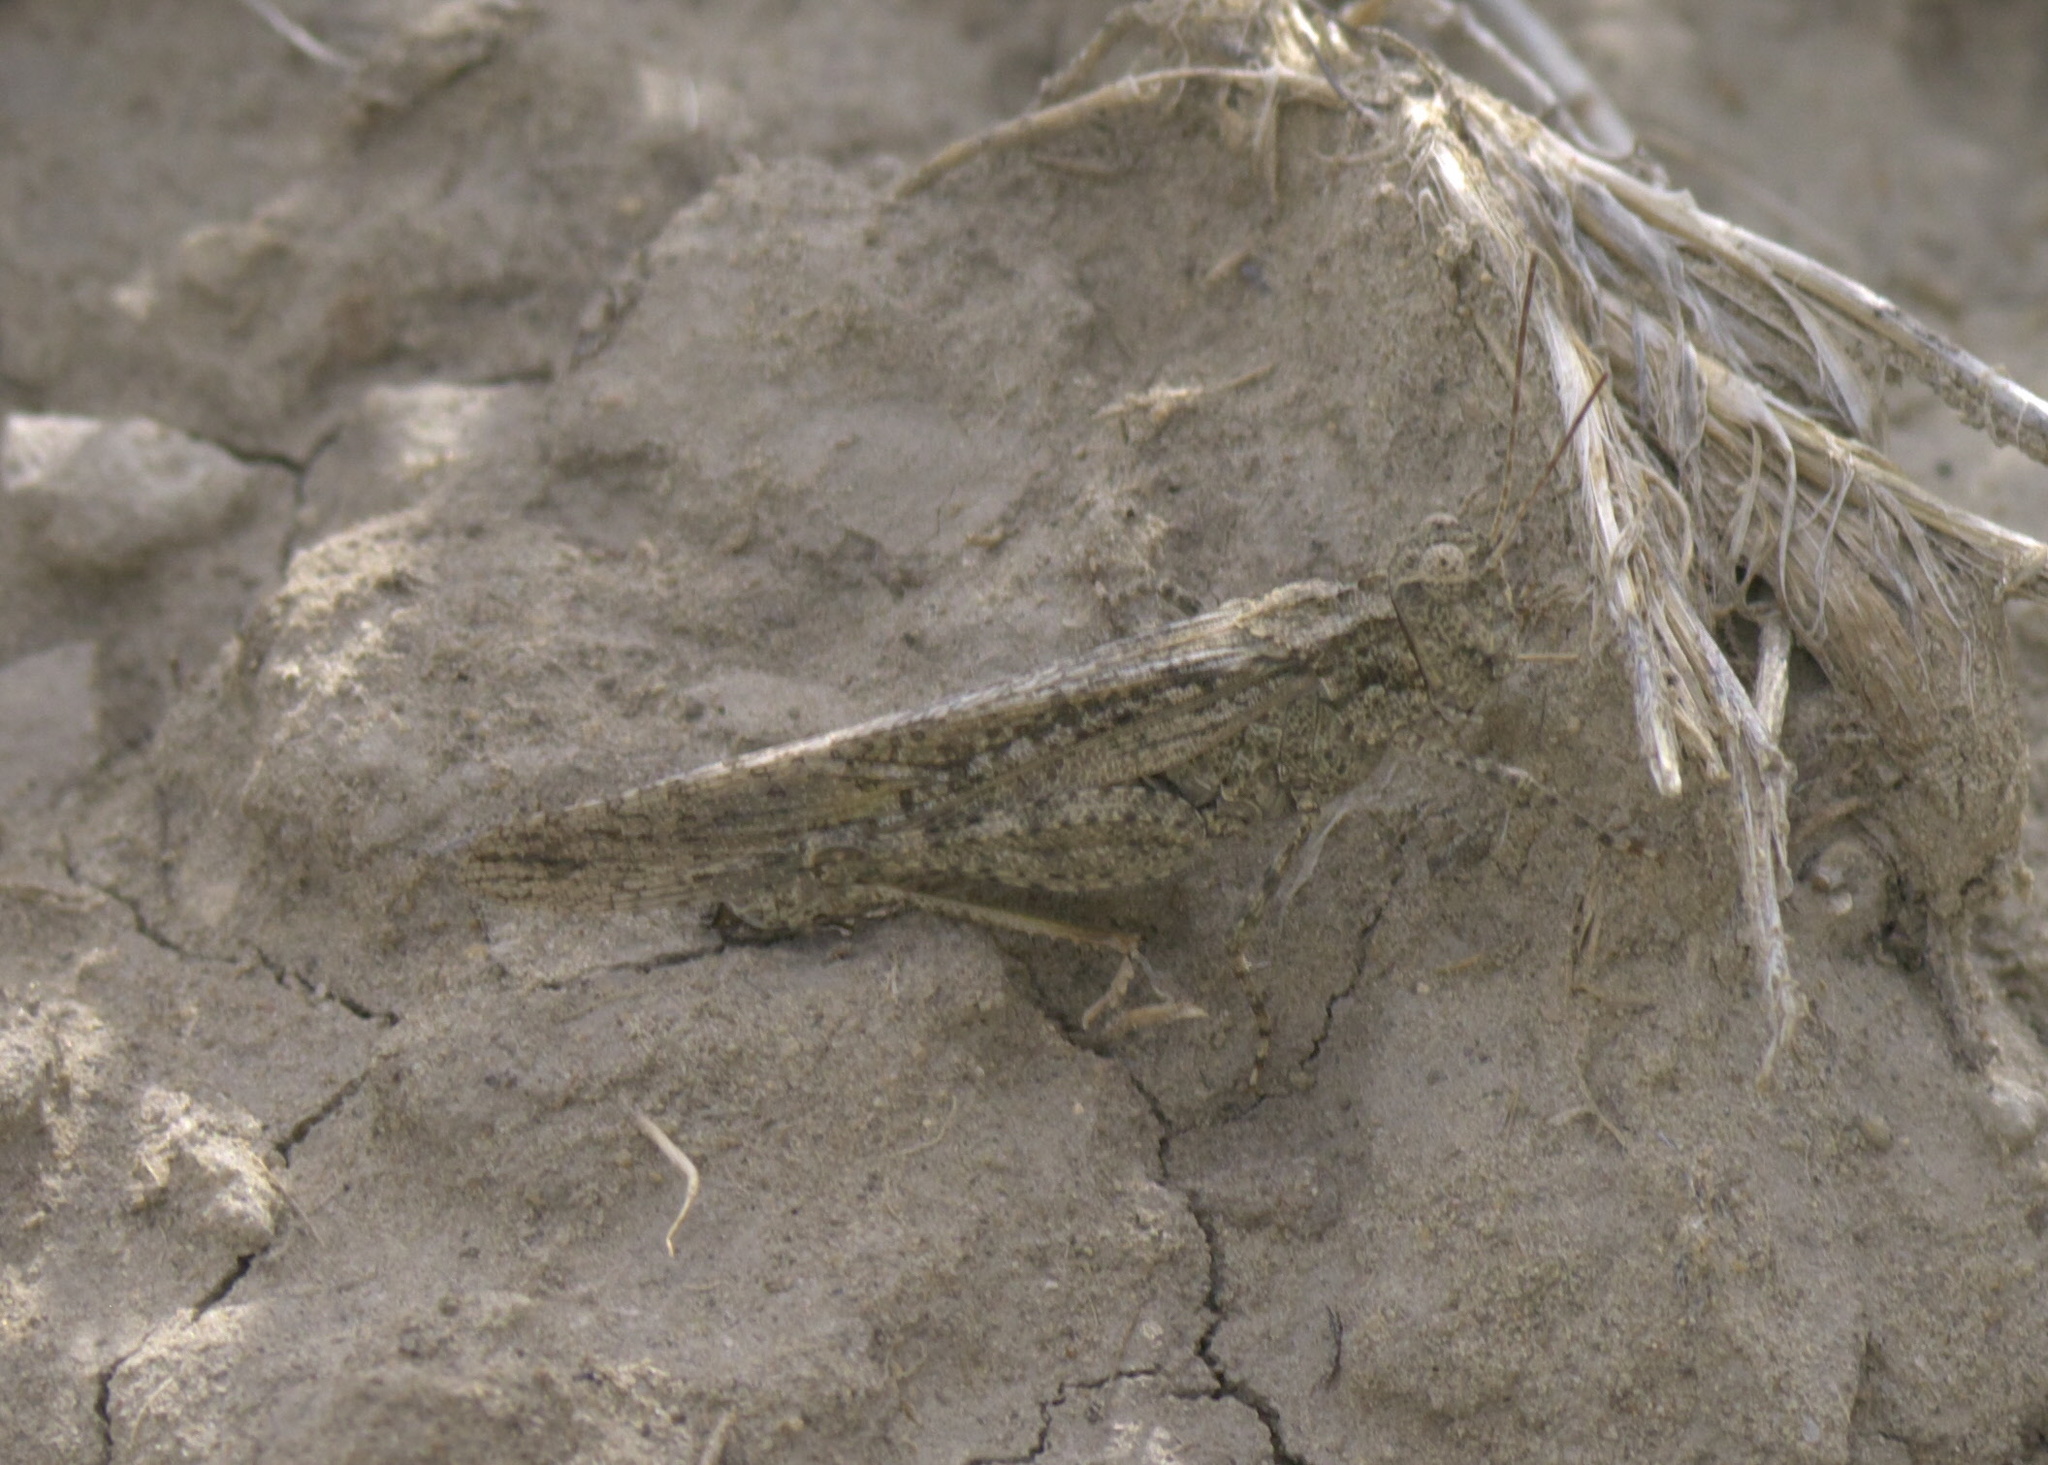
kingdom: Animalia
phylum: Arthropoda
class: Insecta
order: Orthoptera
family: Acrididae
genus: Trimerotropis
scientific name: Trimerotropis gracilis
